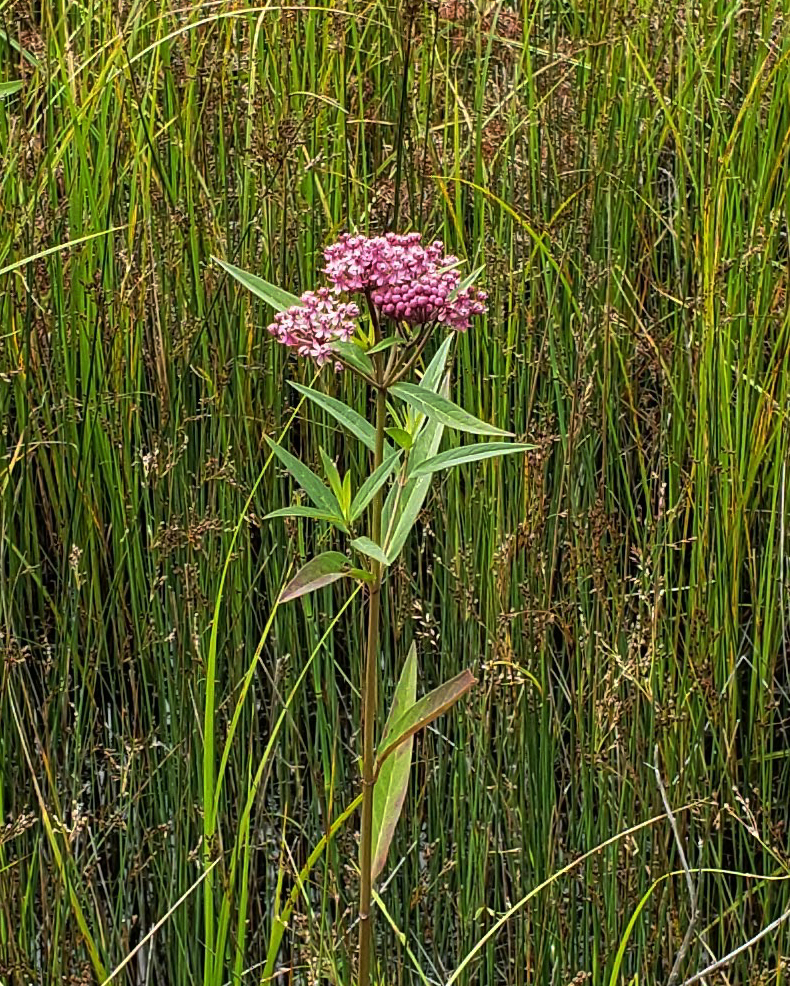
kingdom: Plantae
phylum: Tracheophyta
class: Magnoliopsida
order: Gentianales
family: Apocynaceae
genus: Asclepias
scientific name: Asclepias incarnata
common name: Swamp milkweed
